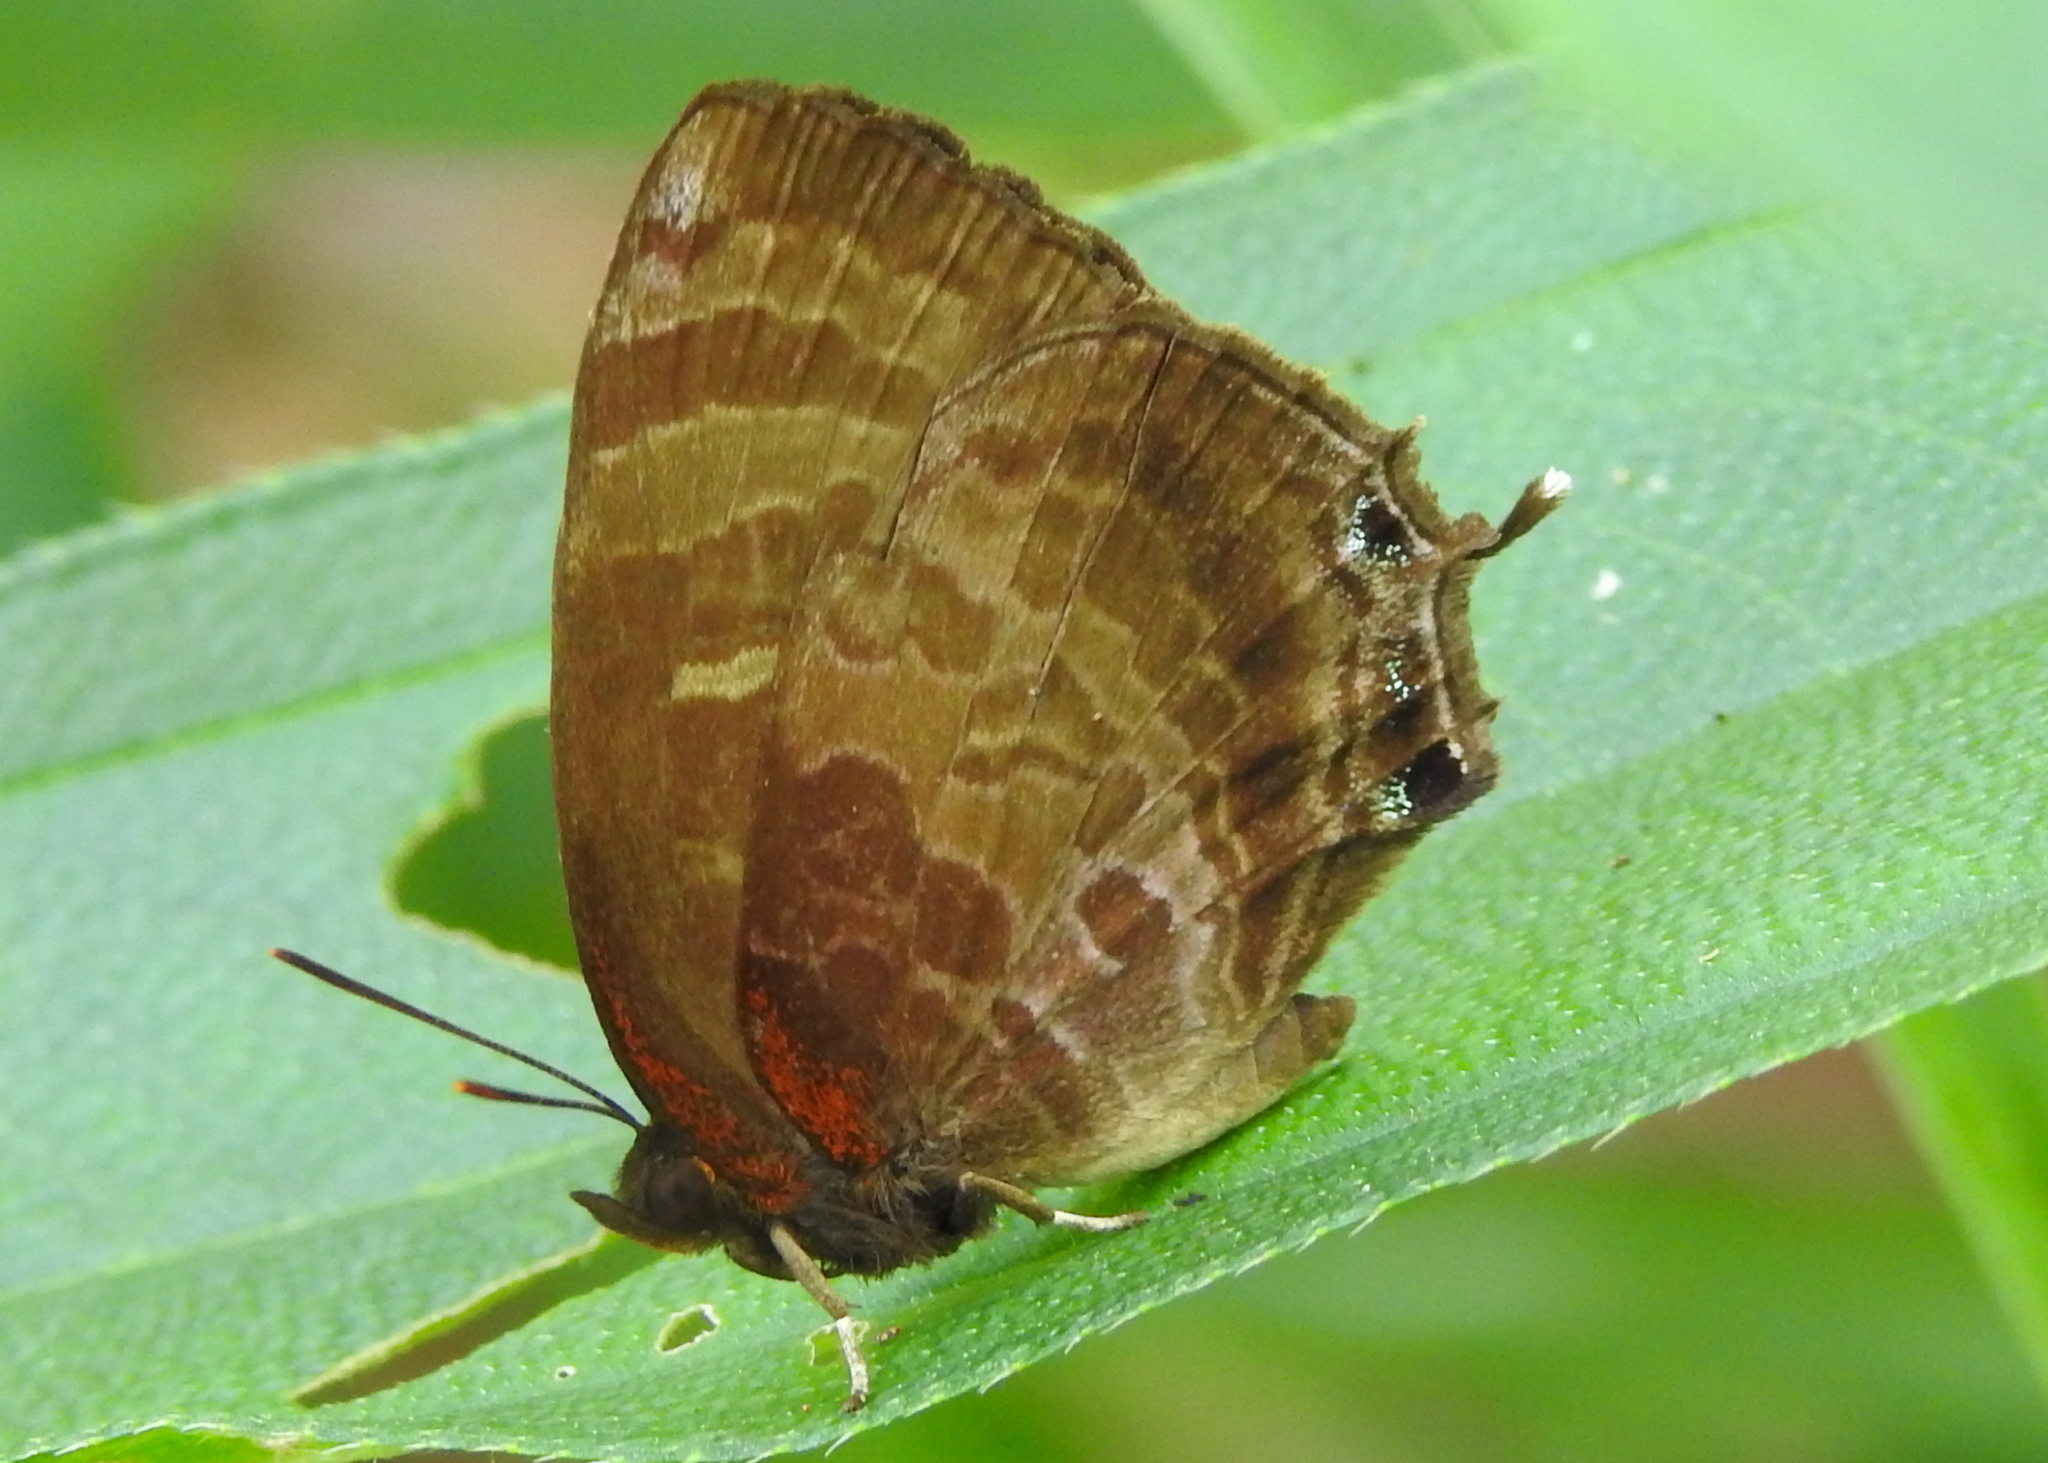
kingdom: Animalia
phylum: Arthropoda
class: Insecta
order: Lepidoptera
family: Lycaenidae
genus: Flos
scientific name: Flos apidanus
